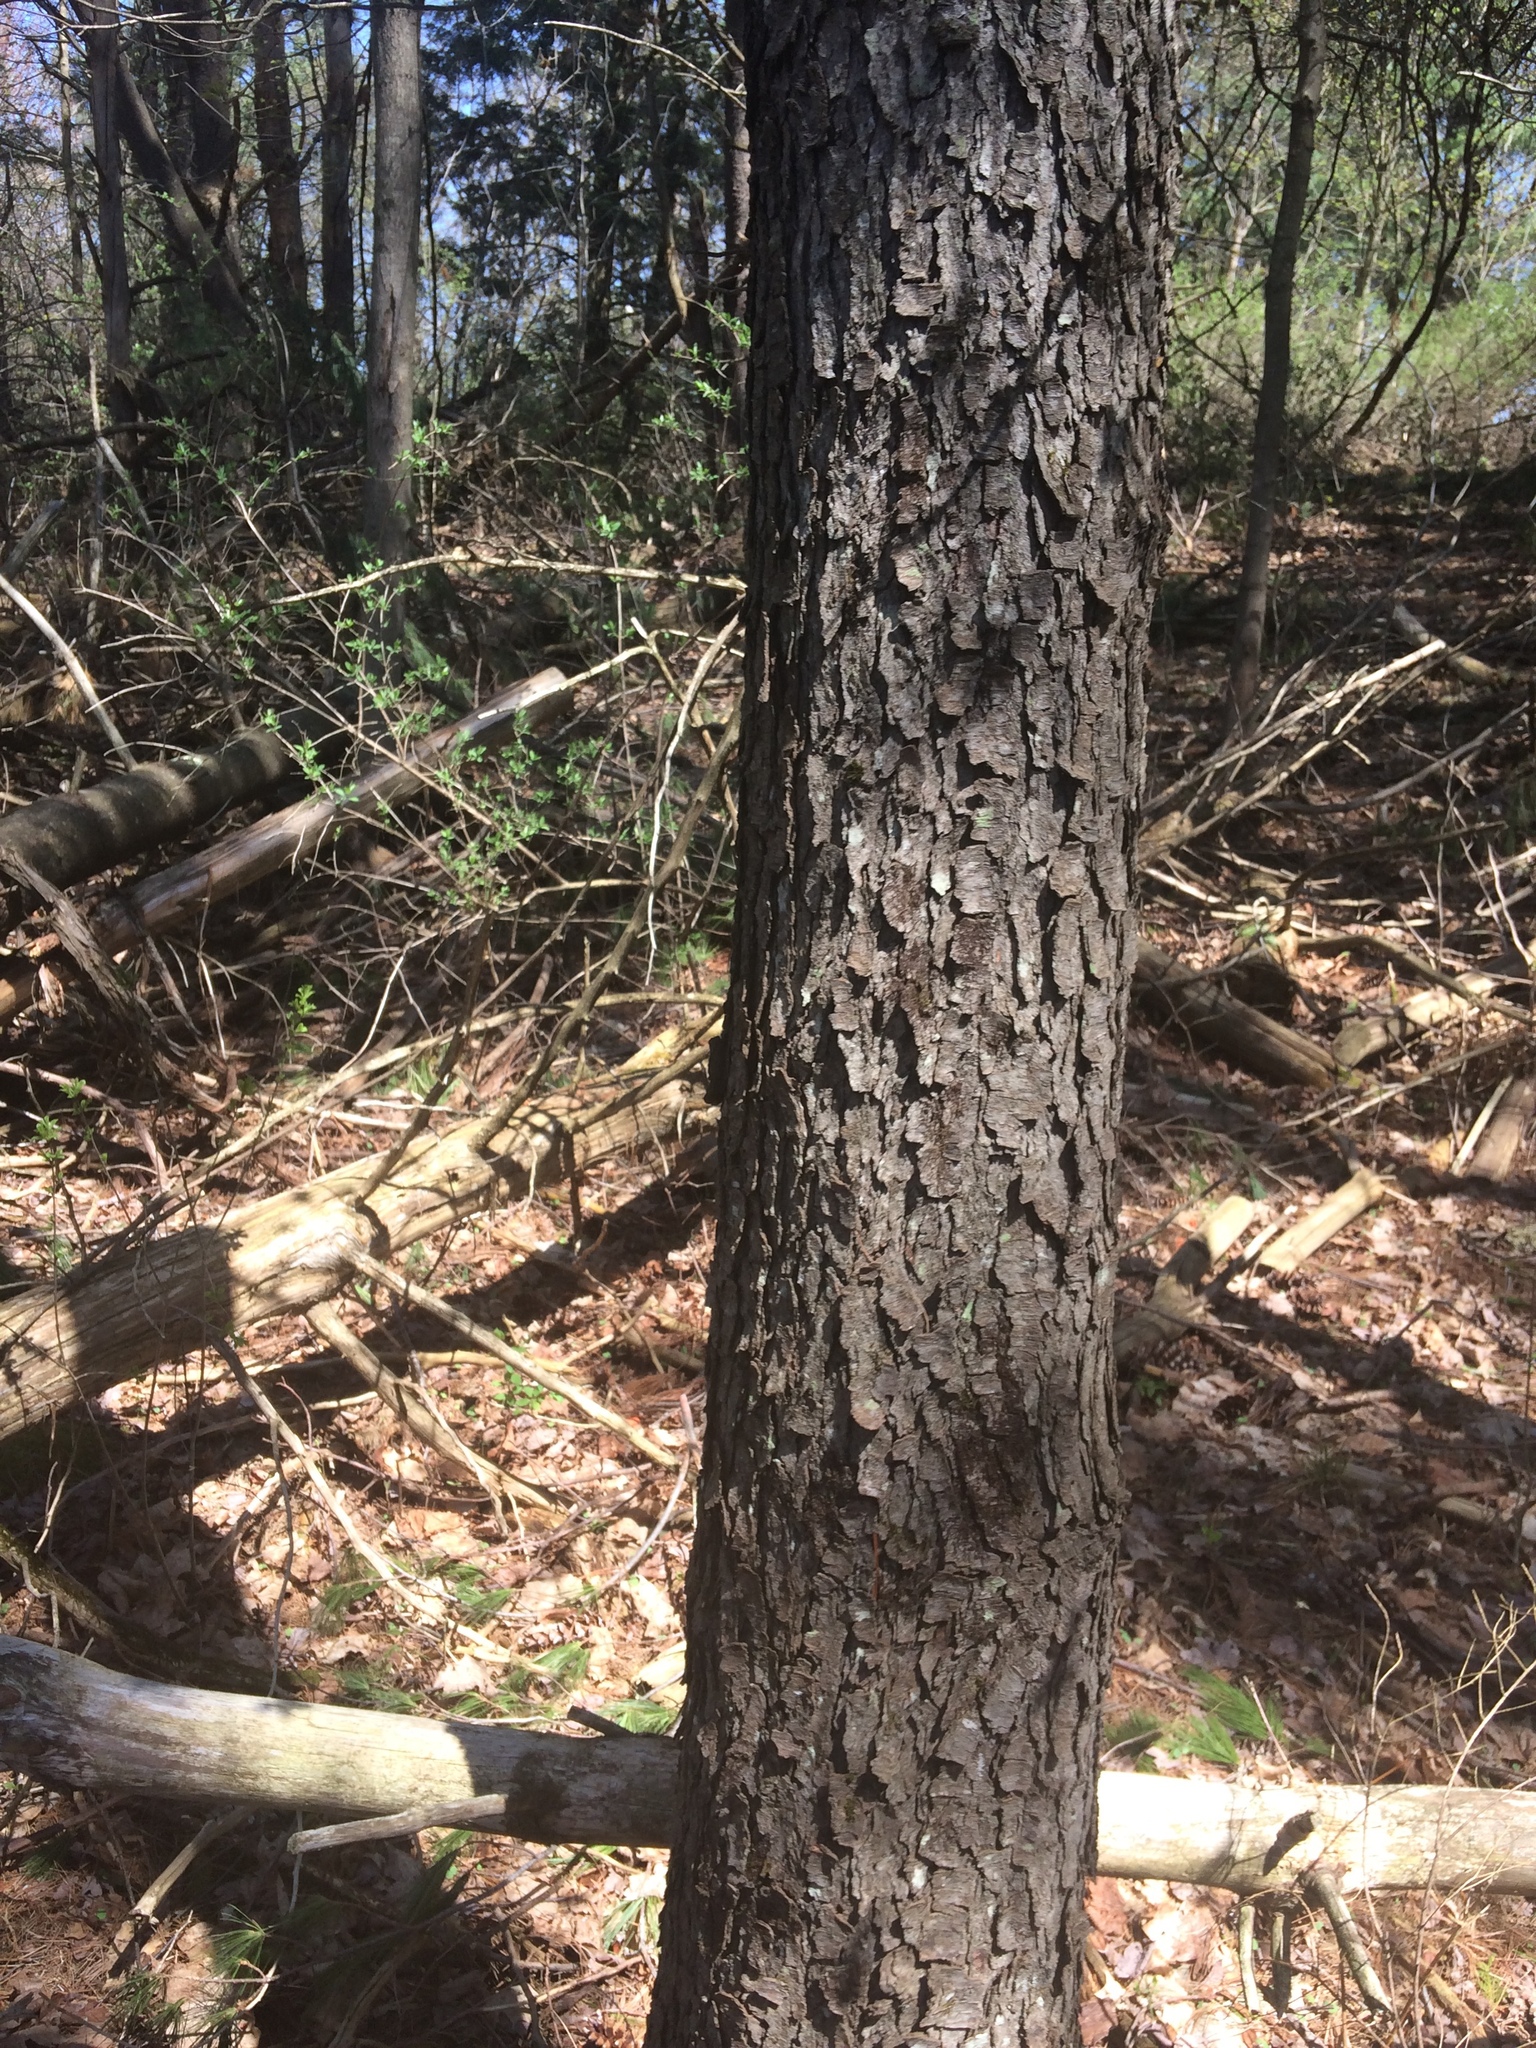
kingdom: Plantae
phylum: Tracheophyta
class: Magnoliopsida
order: Rosales
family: Rosaceae
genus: Prunus
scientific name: Prunus serotina
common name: Black cherry
